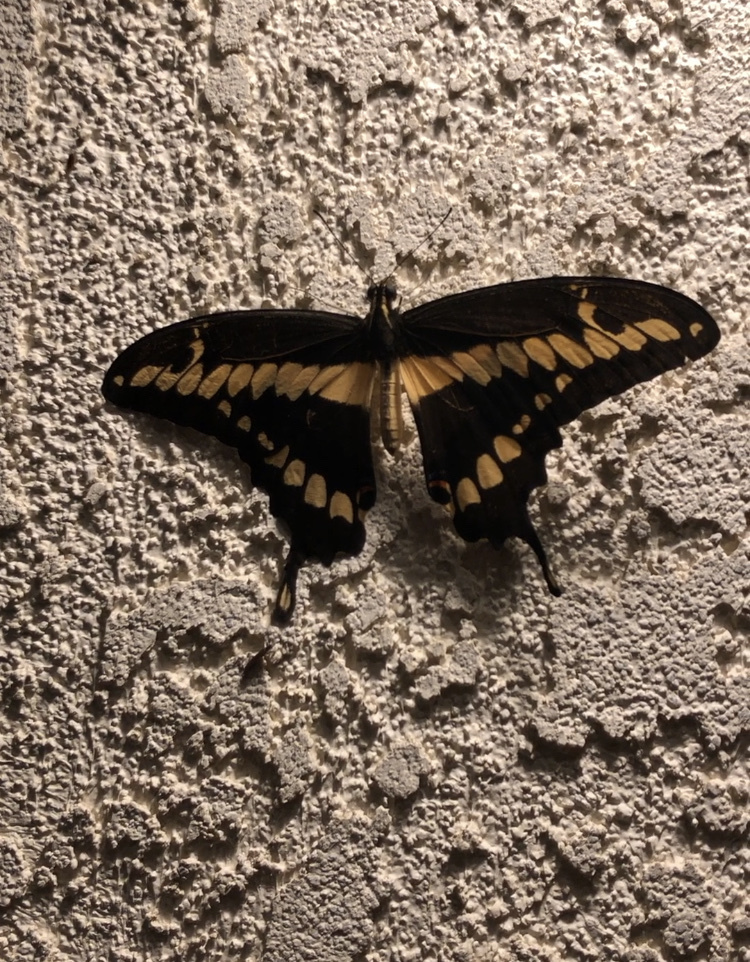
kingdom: Animalia
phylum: Arthropoda
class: Insecta
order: Lepidoptera
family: Papilionidae
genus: Papilio
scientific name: Papilio rumiko
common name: Western giant swallowtail
